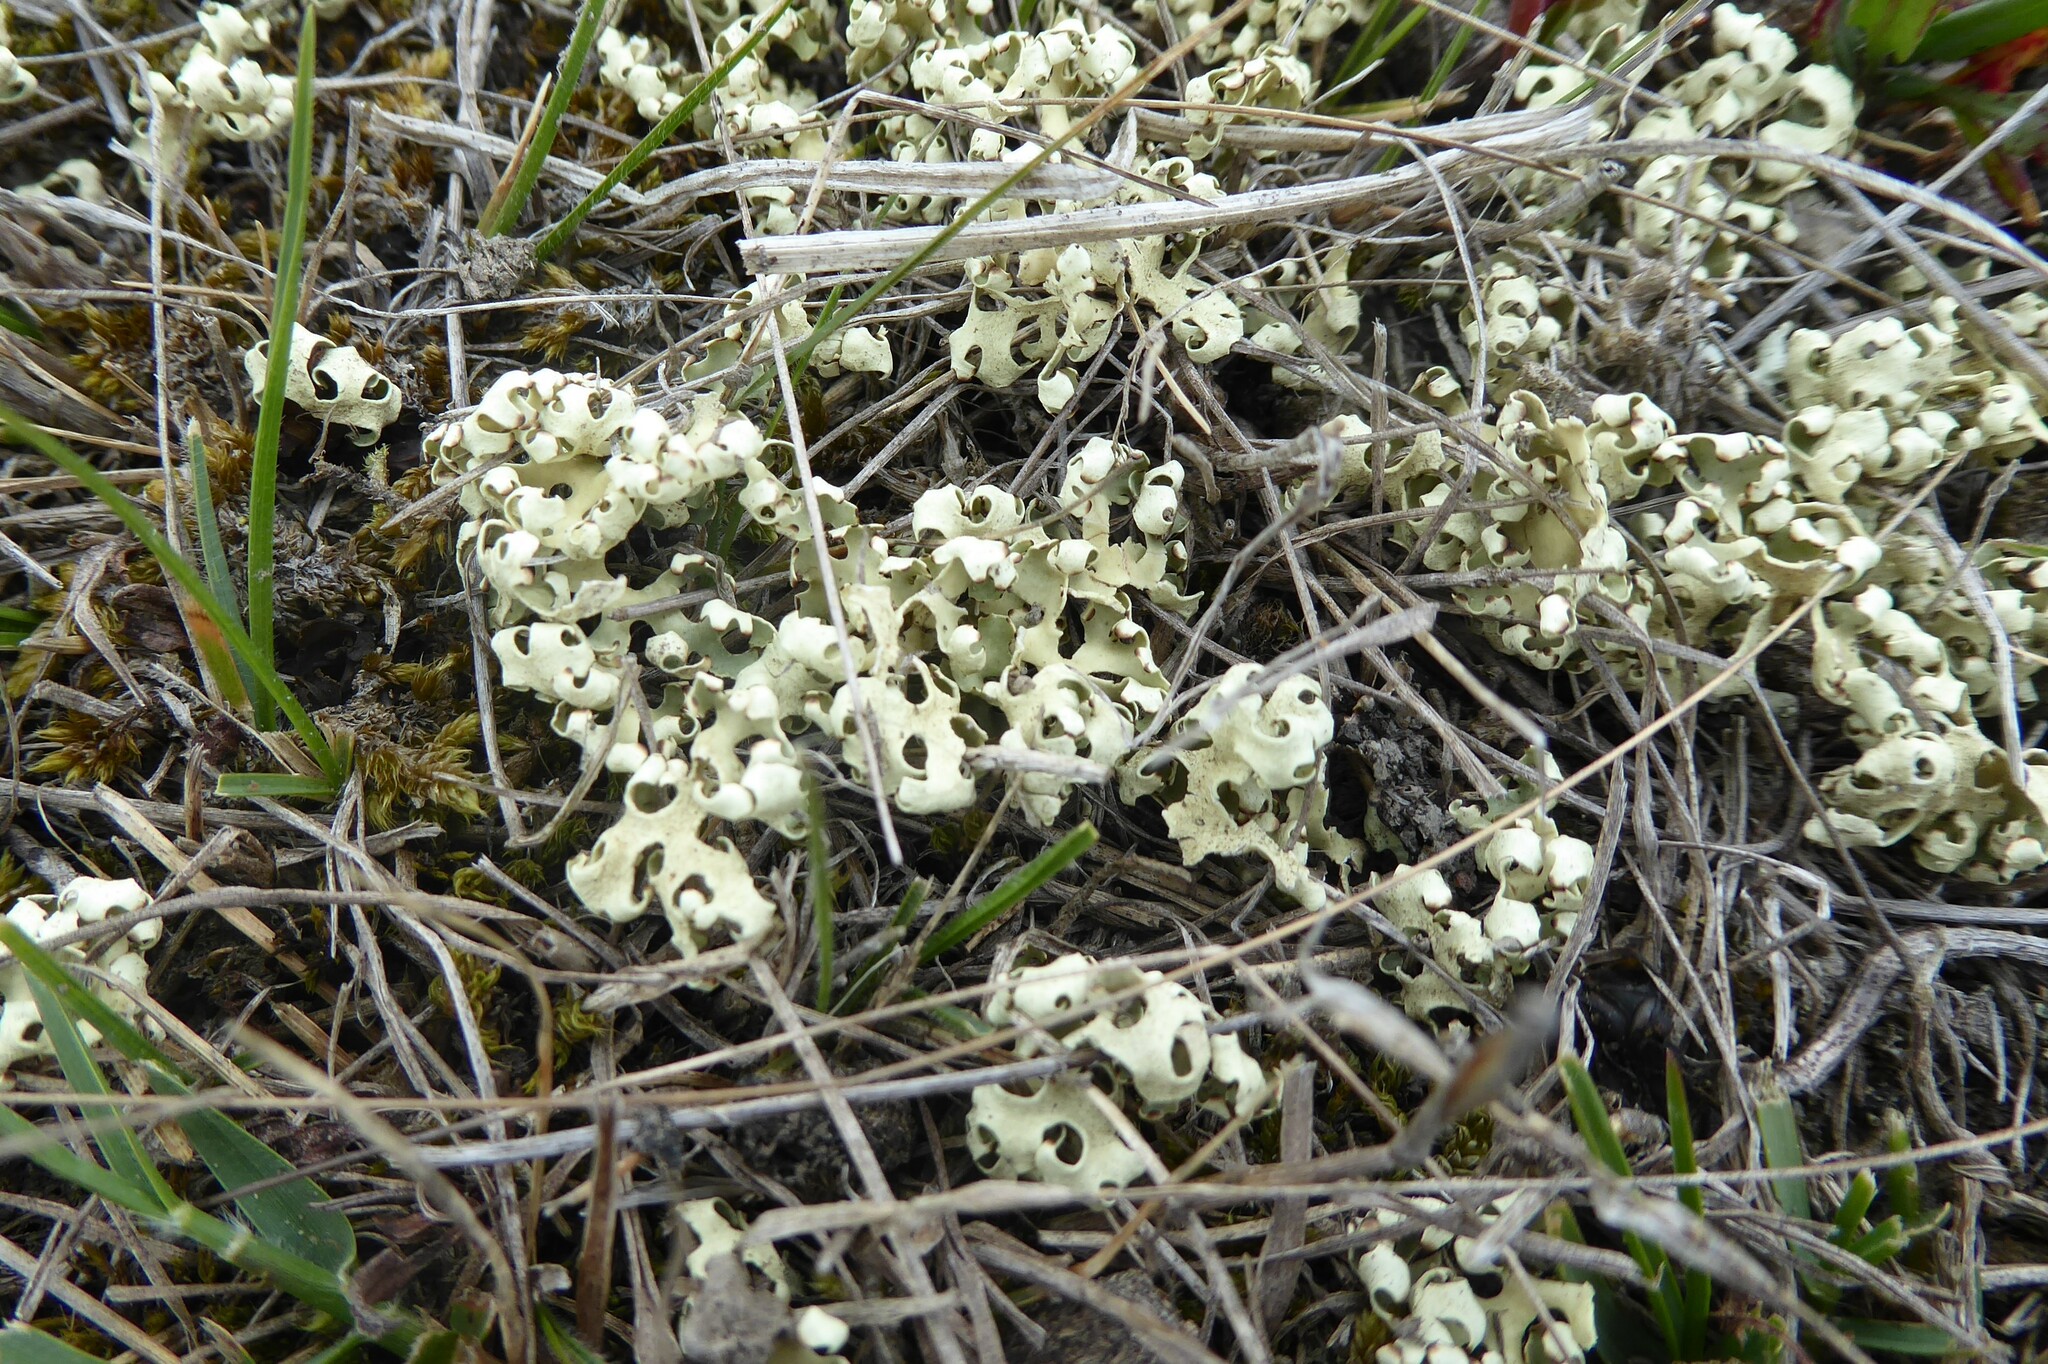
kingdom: Fungi
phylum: Ascomycota
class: Lecanoromycetes
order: Lecanorales
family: Parmeliaceae
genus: Xanthoparmelia
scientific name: Xanthoparmelia semiviridis
